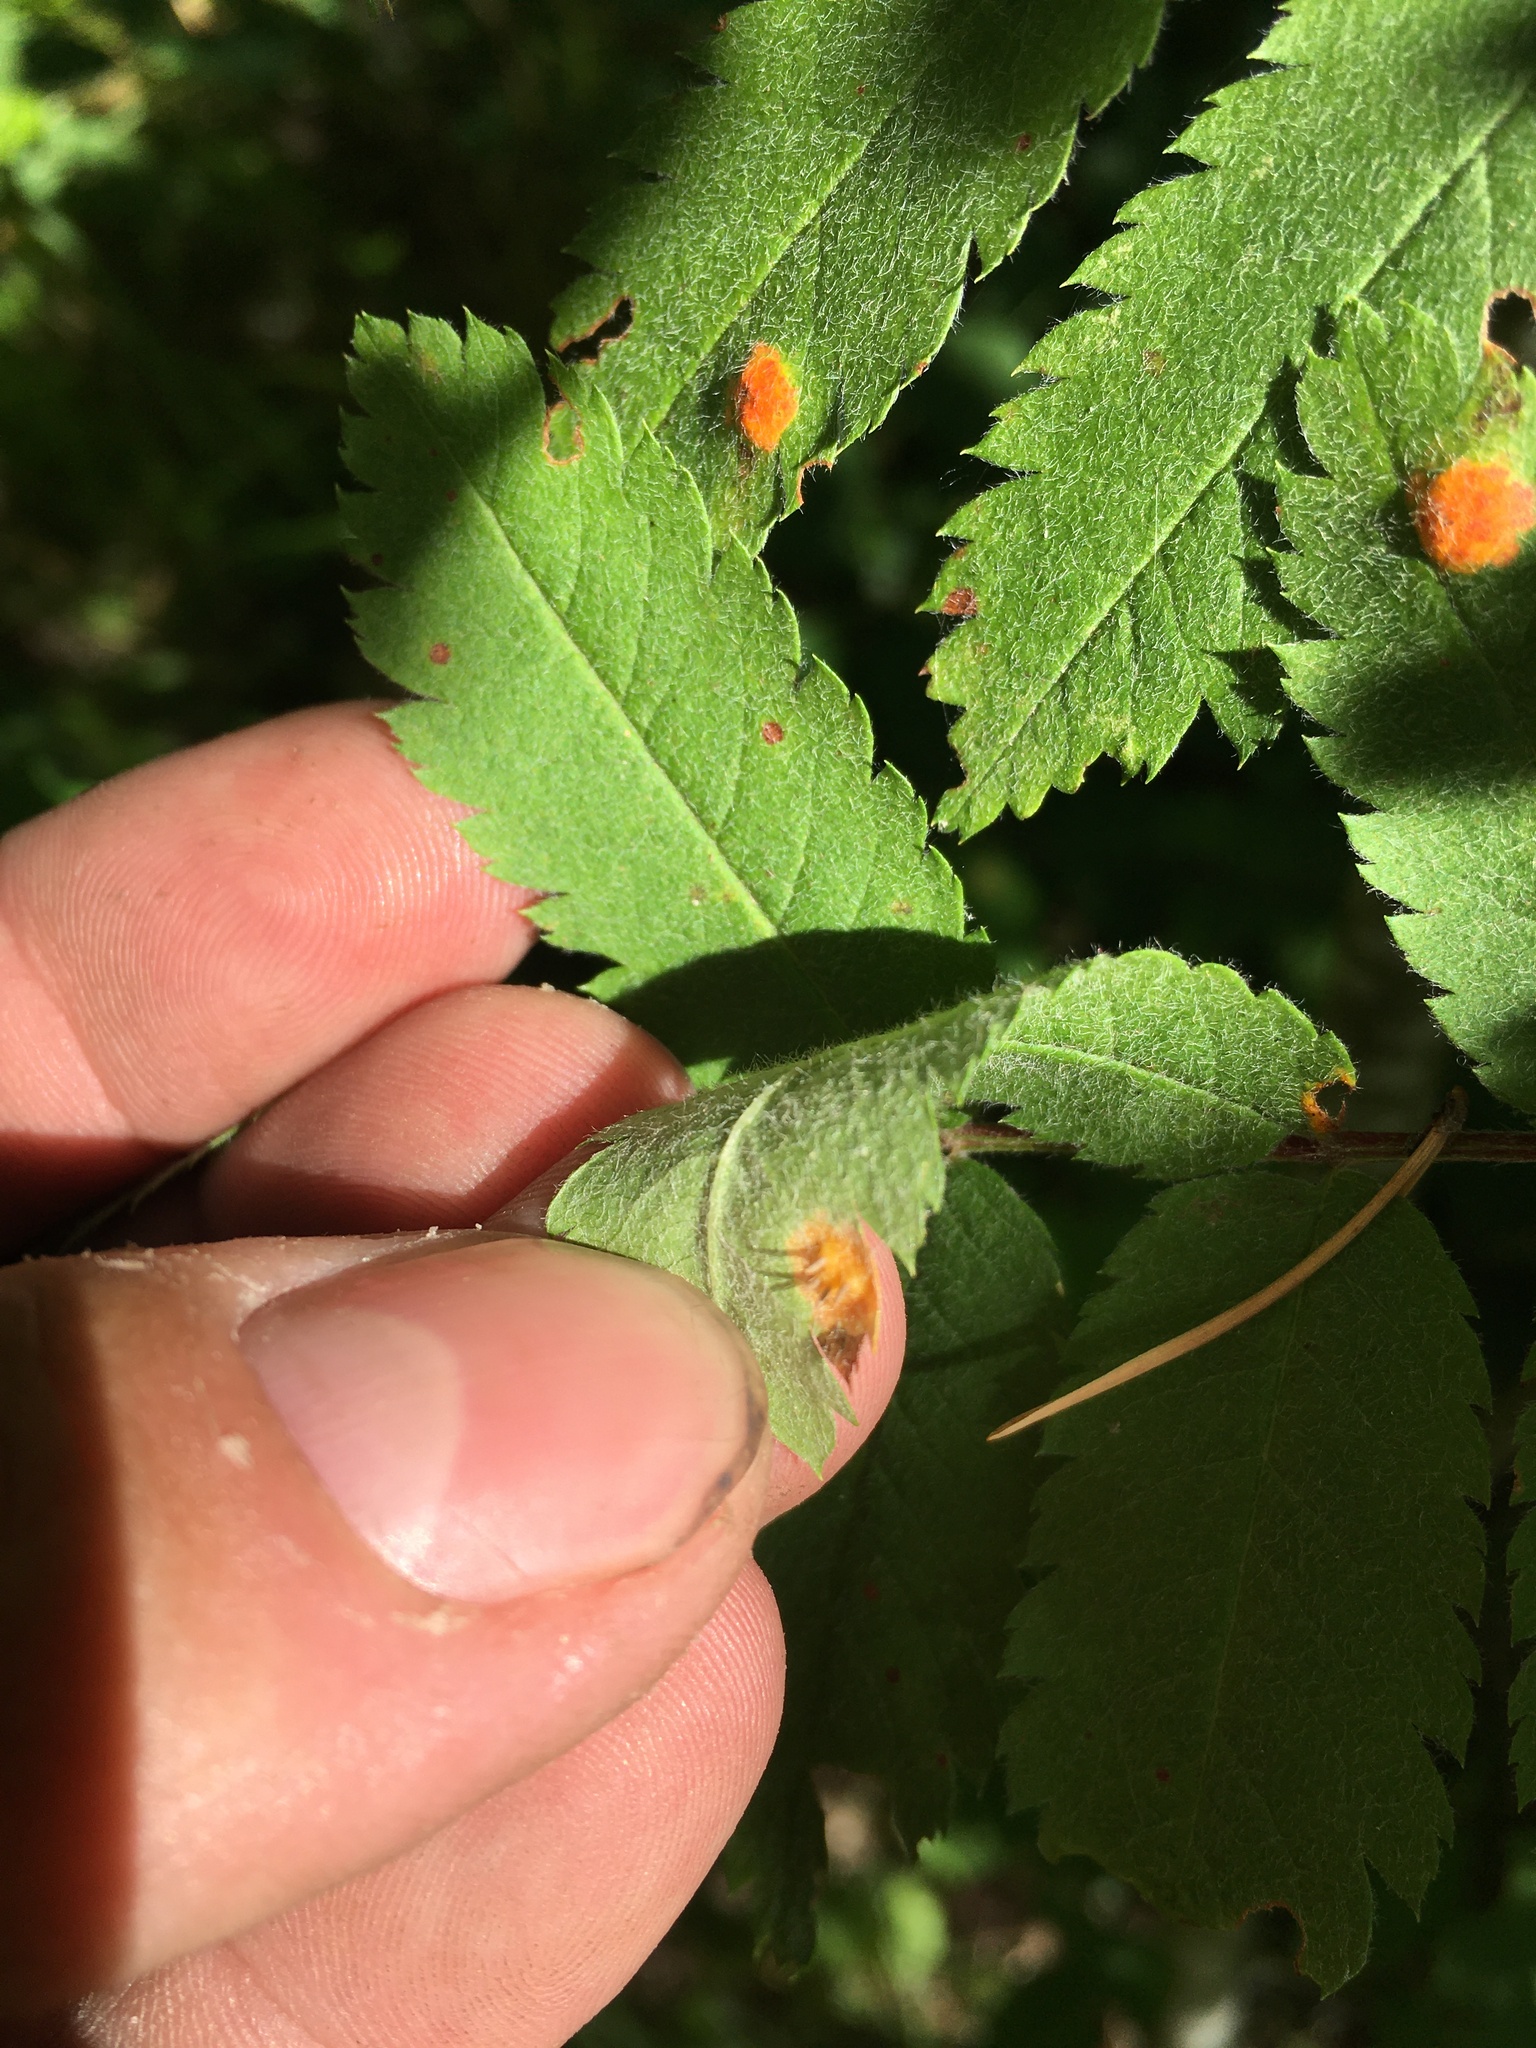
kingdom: Fungi
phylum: Basidiomycota
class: Pucciniomycetes
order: Pucciniales
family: Gymnosporangiaceae
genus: Gymnosporangium
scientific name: Gymnosporangium cornutum
